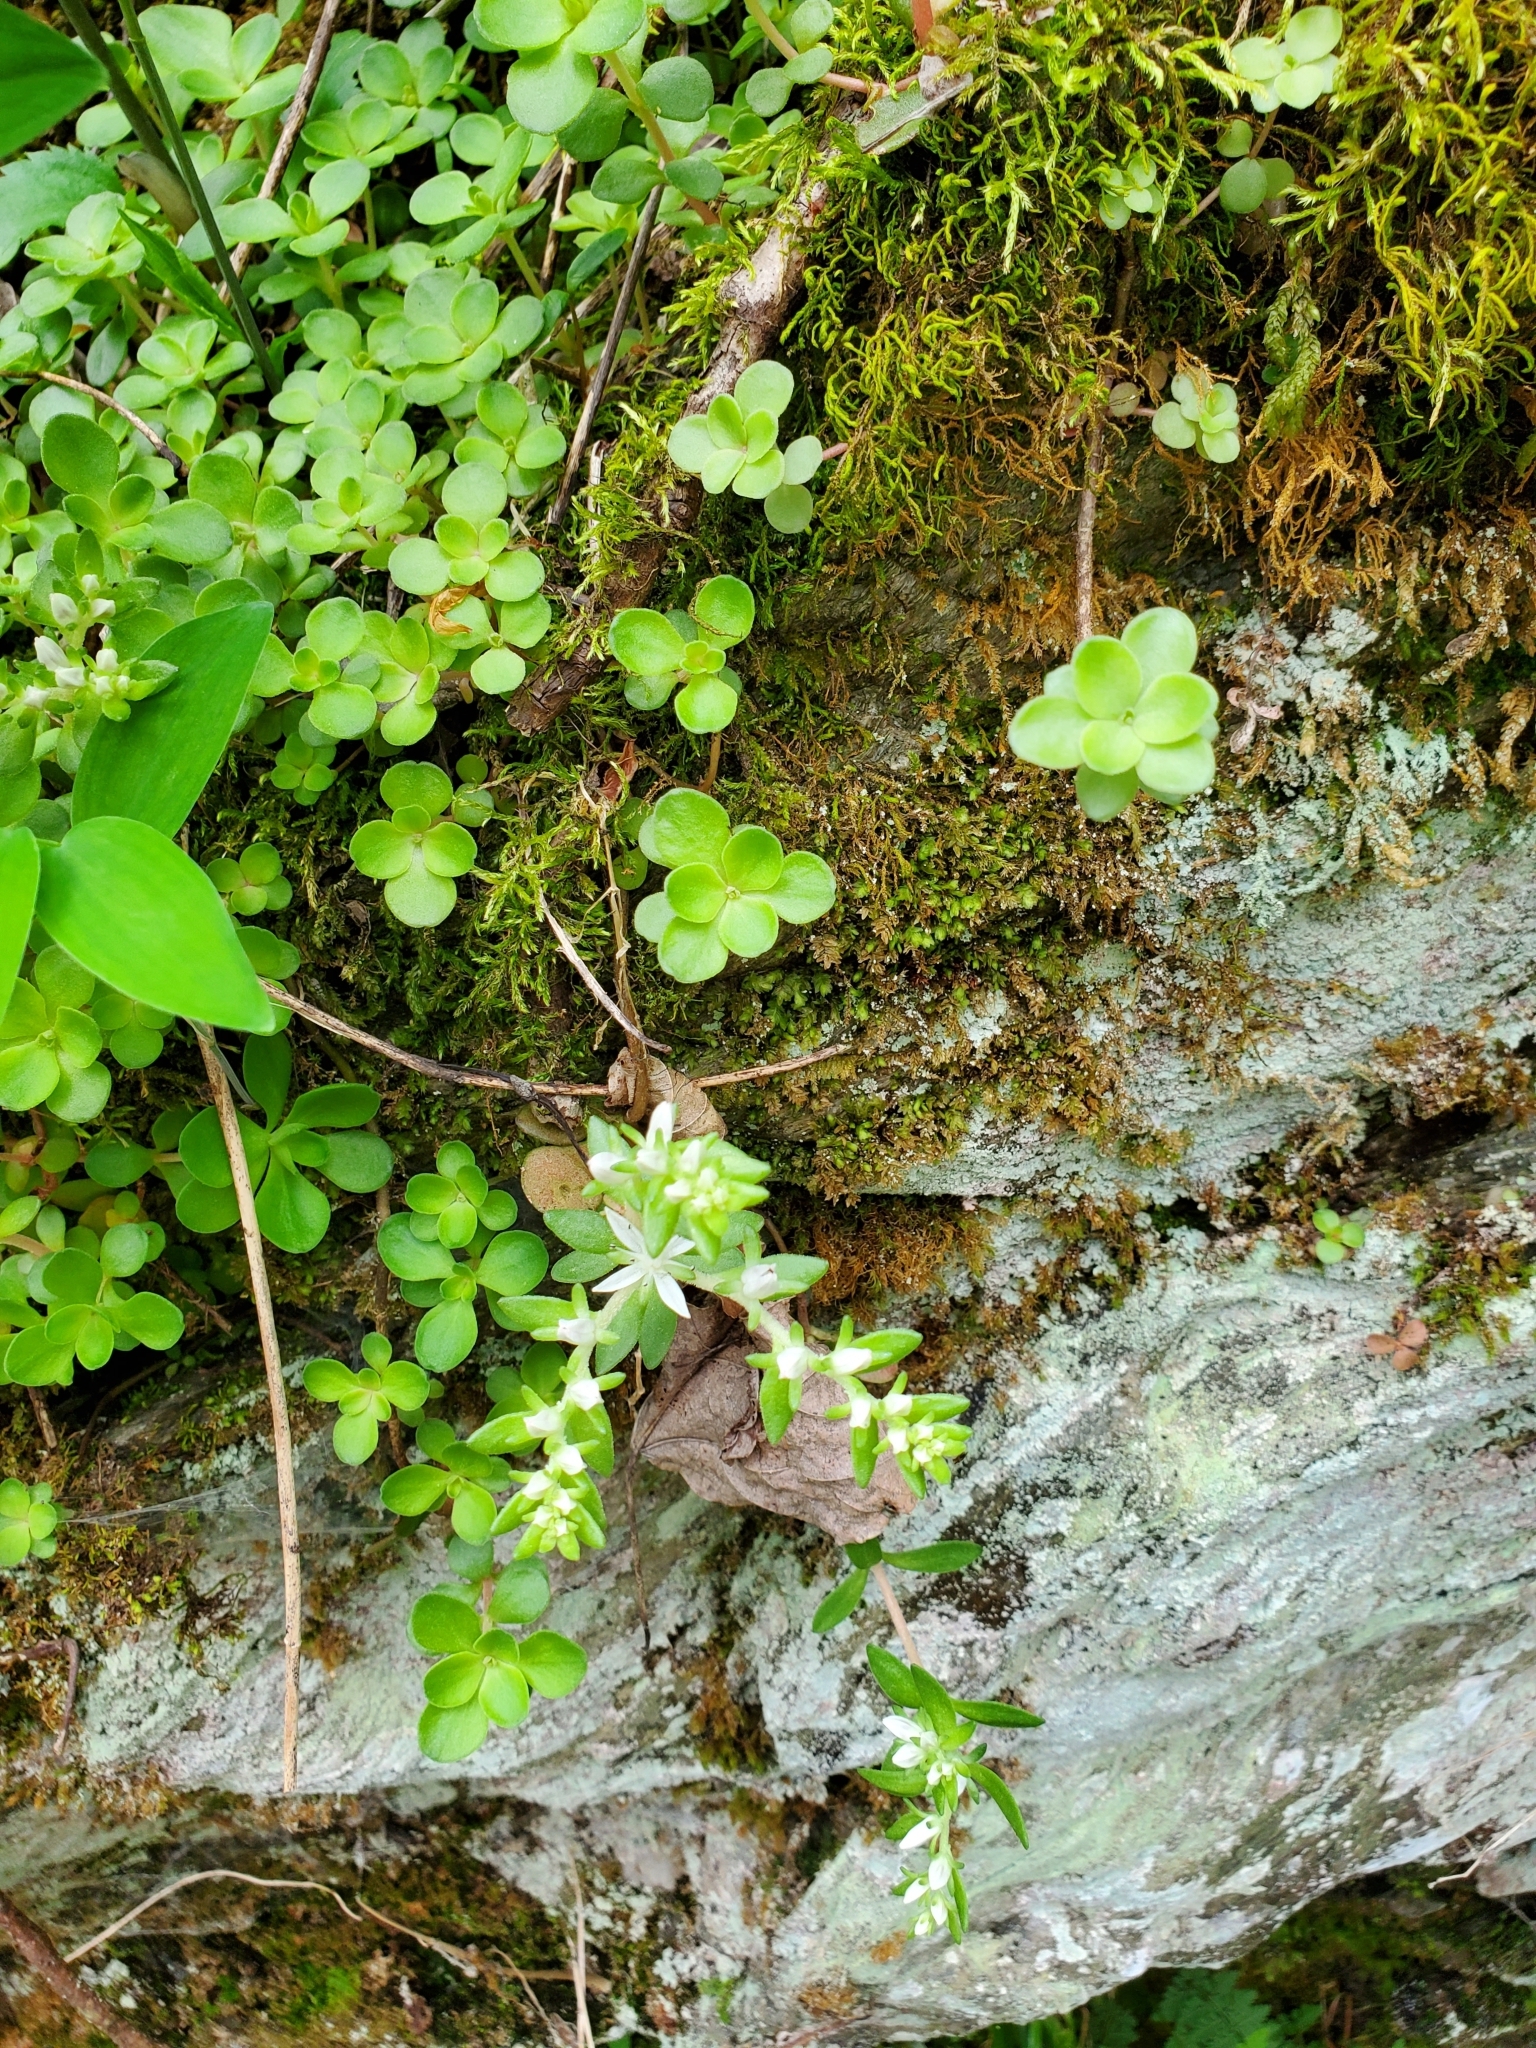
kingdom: Plantae
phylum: Tracheophyta
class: Magnoliopsida
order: Saxifragales
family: Crassulaceae
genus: Sedum
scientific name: Sedum ternatum
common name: Wild stonecrop
